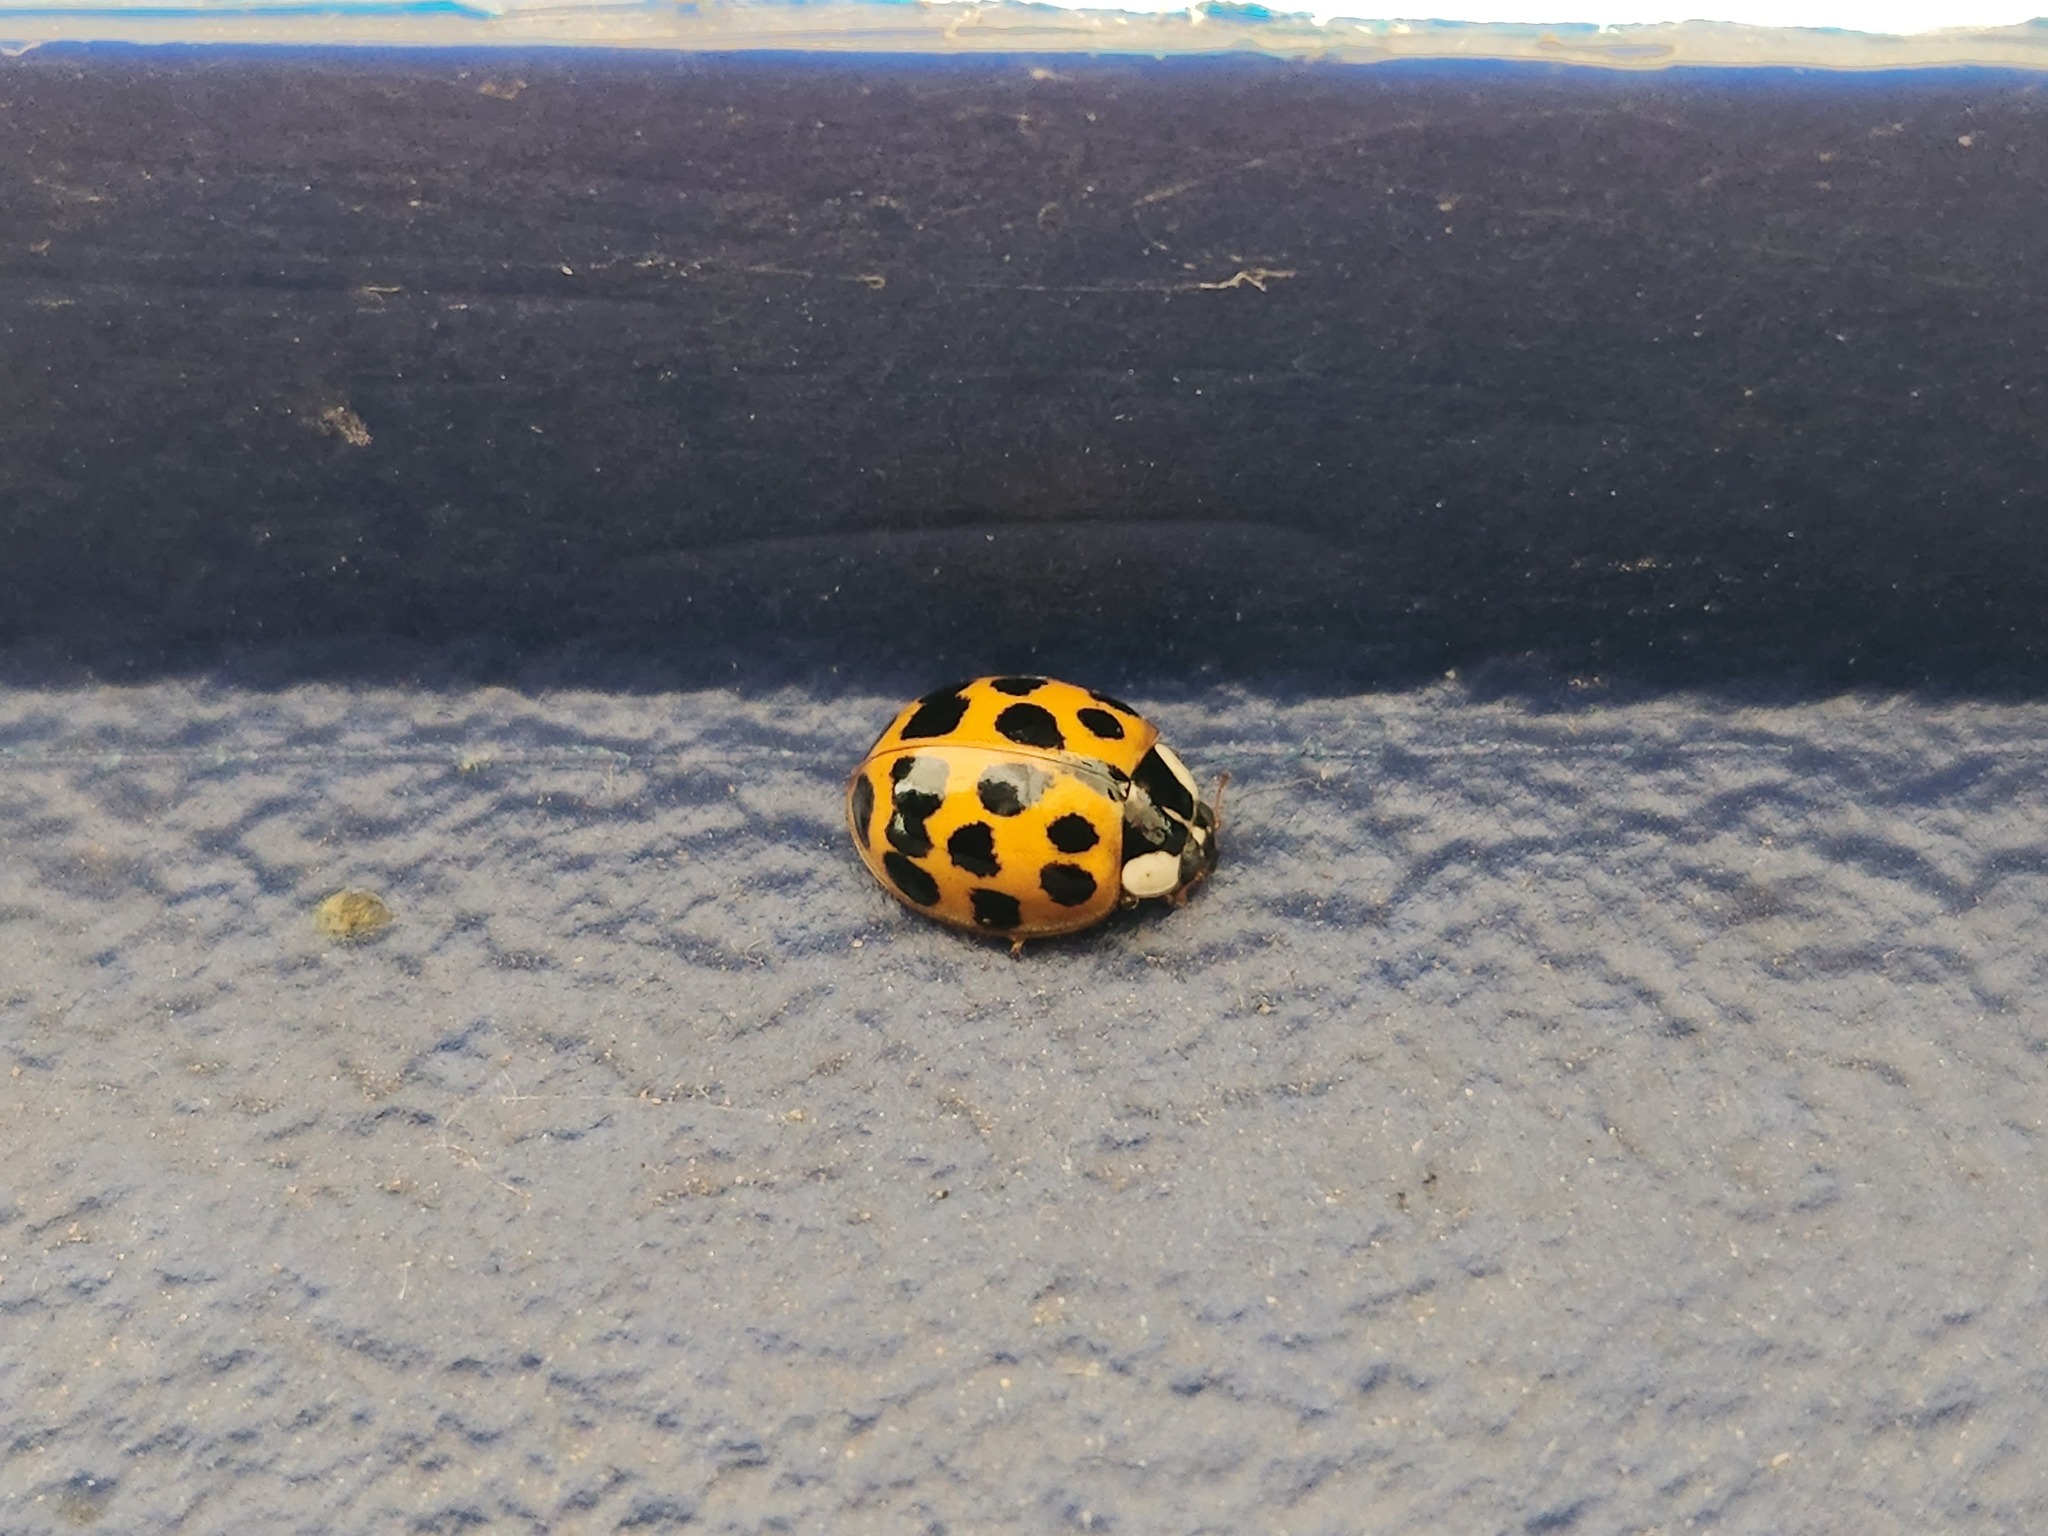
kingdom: Animalia
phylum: Arthropoda
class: Insecta
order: Coleoptera
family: Coccinellidae
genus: Harmonia
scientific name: Harmonia axyridis
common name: Harlequin ladybird
